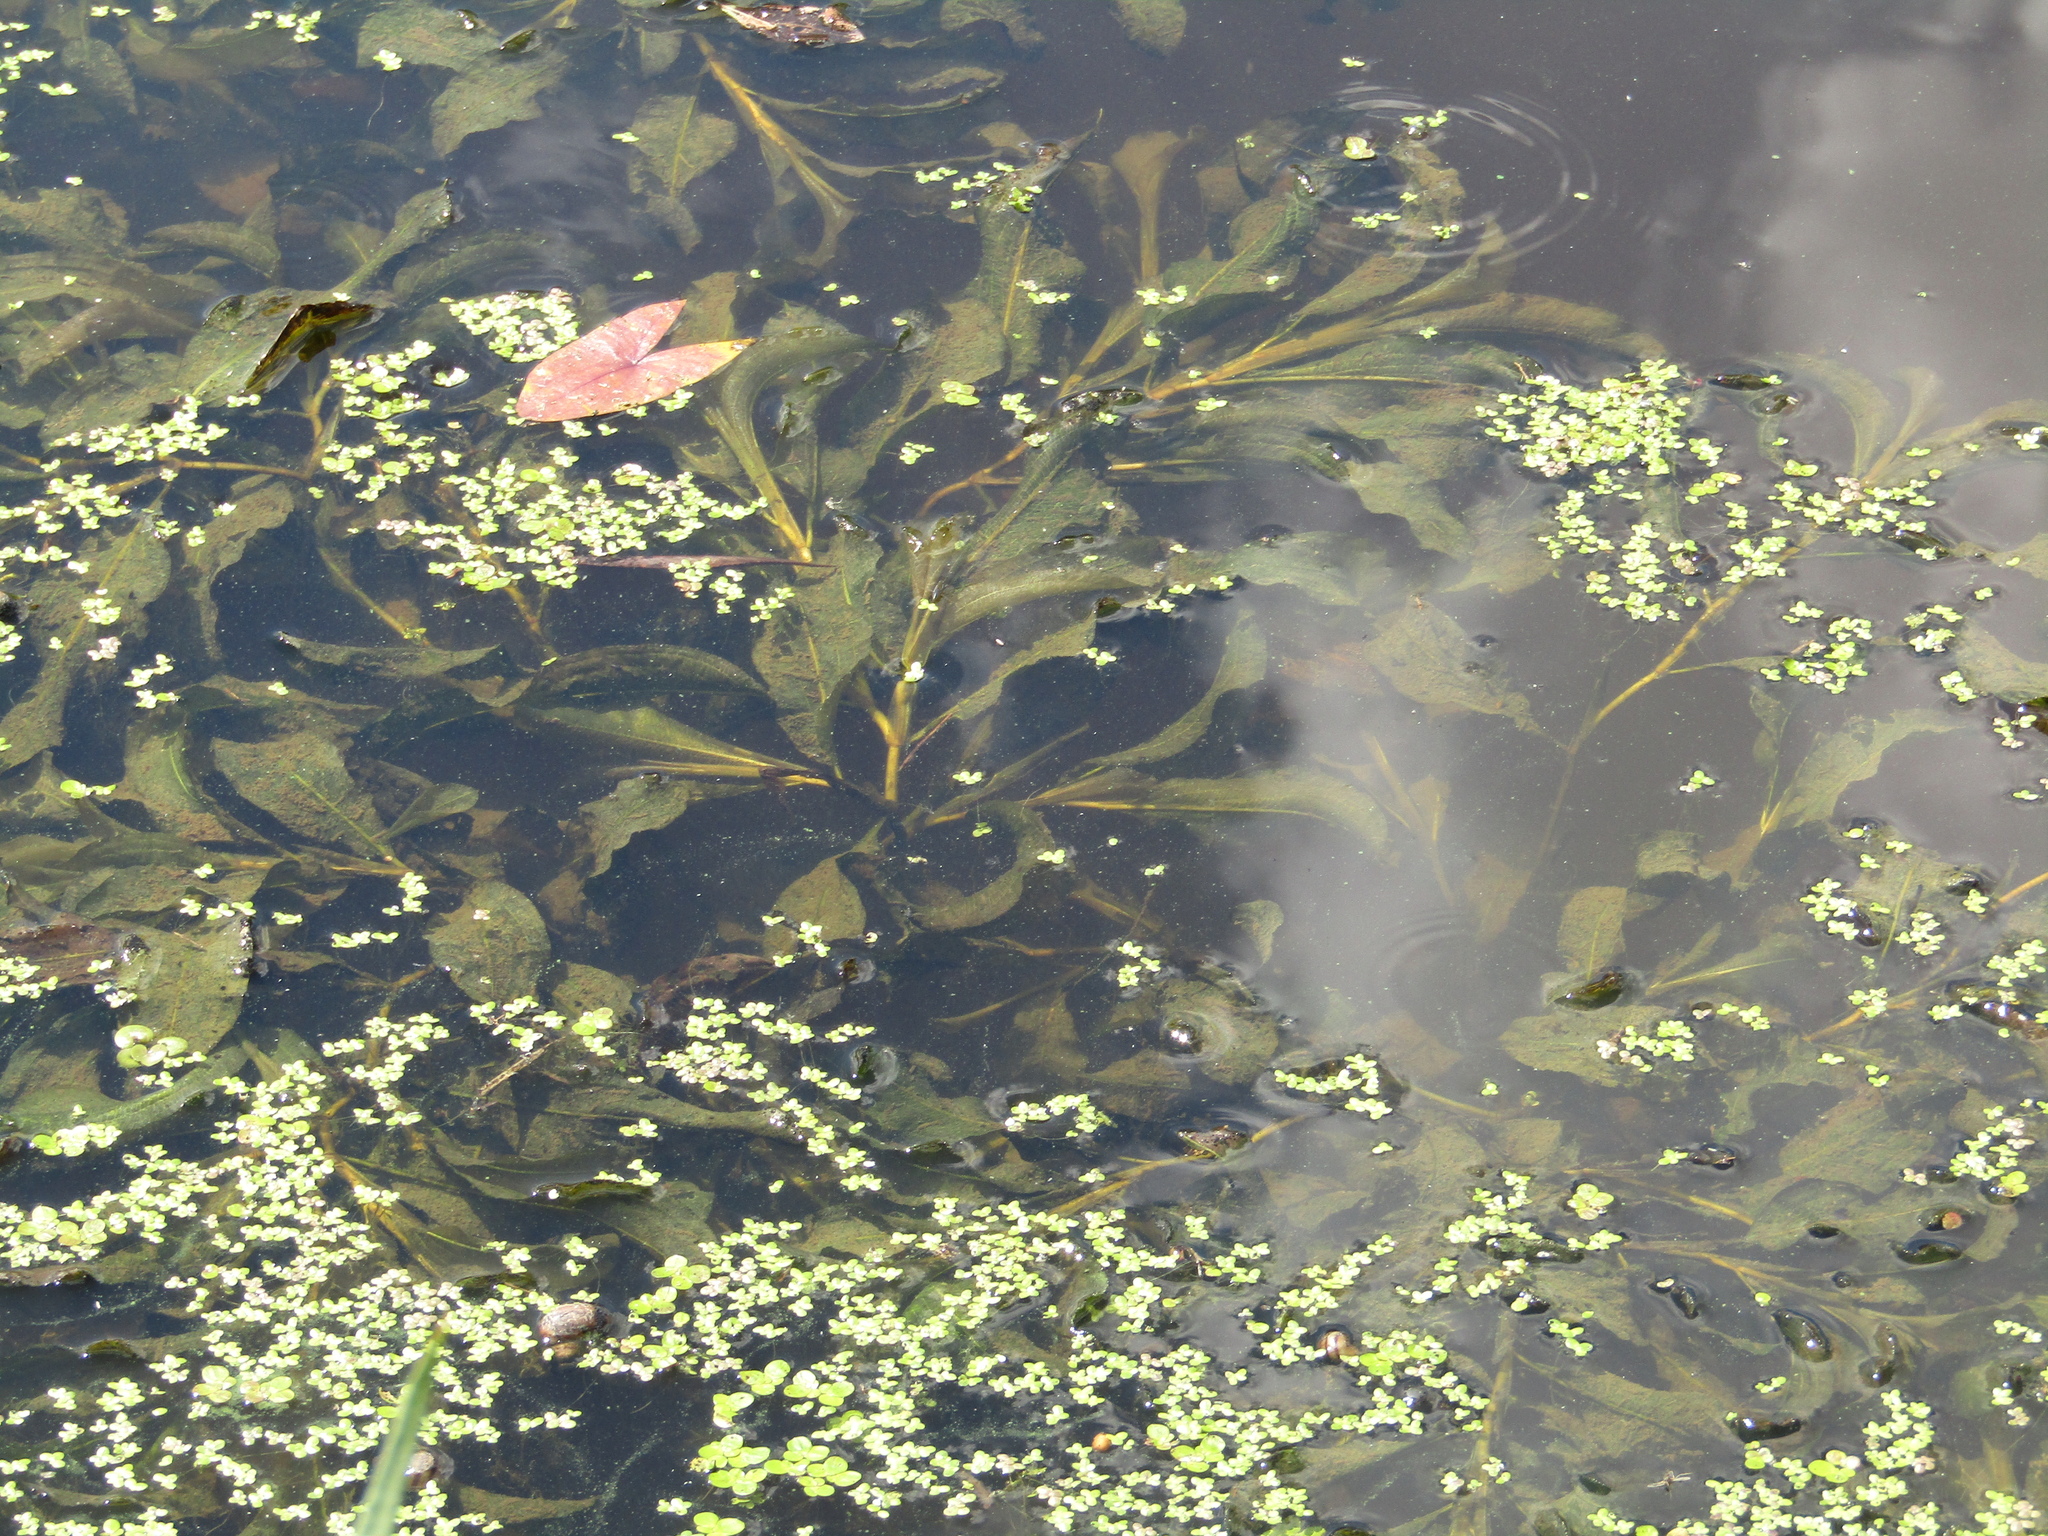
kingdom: Plantae
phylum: Tracheophyta
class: Liliopsida
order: Alismatales
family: Potamogetonaceae
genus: Potamogeton
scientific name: Potamogeton lucens
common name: Shining pondweed
